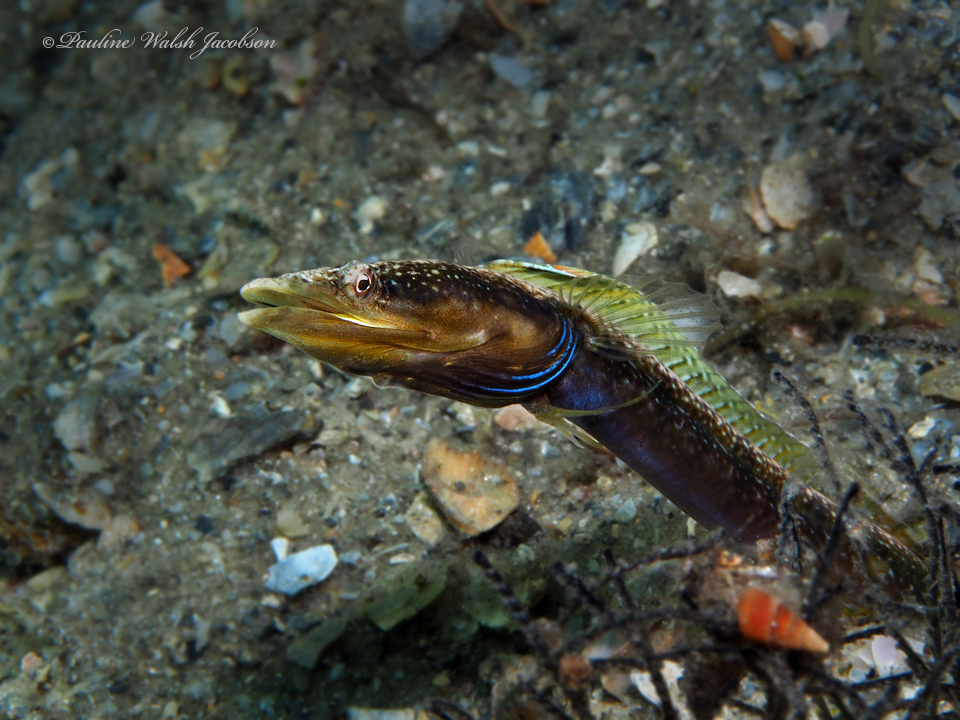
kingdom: Animalia
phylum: Chordata
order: Perciformes
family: Chaenopsidae
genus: Chaenopsis
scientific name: Chaenopsis ocellata
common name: Bluethroat pikeblenny
